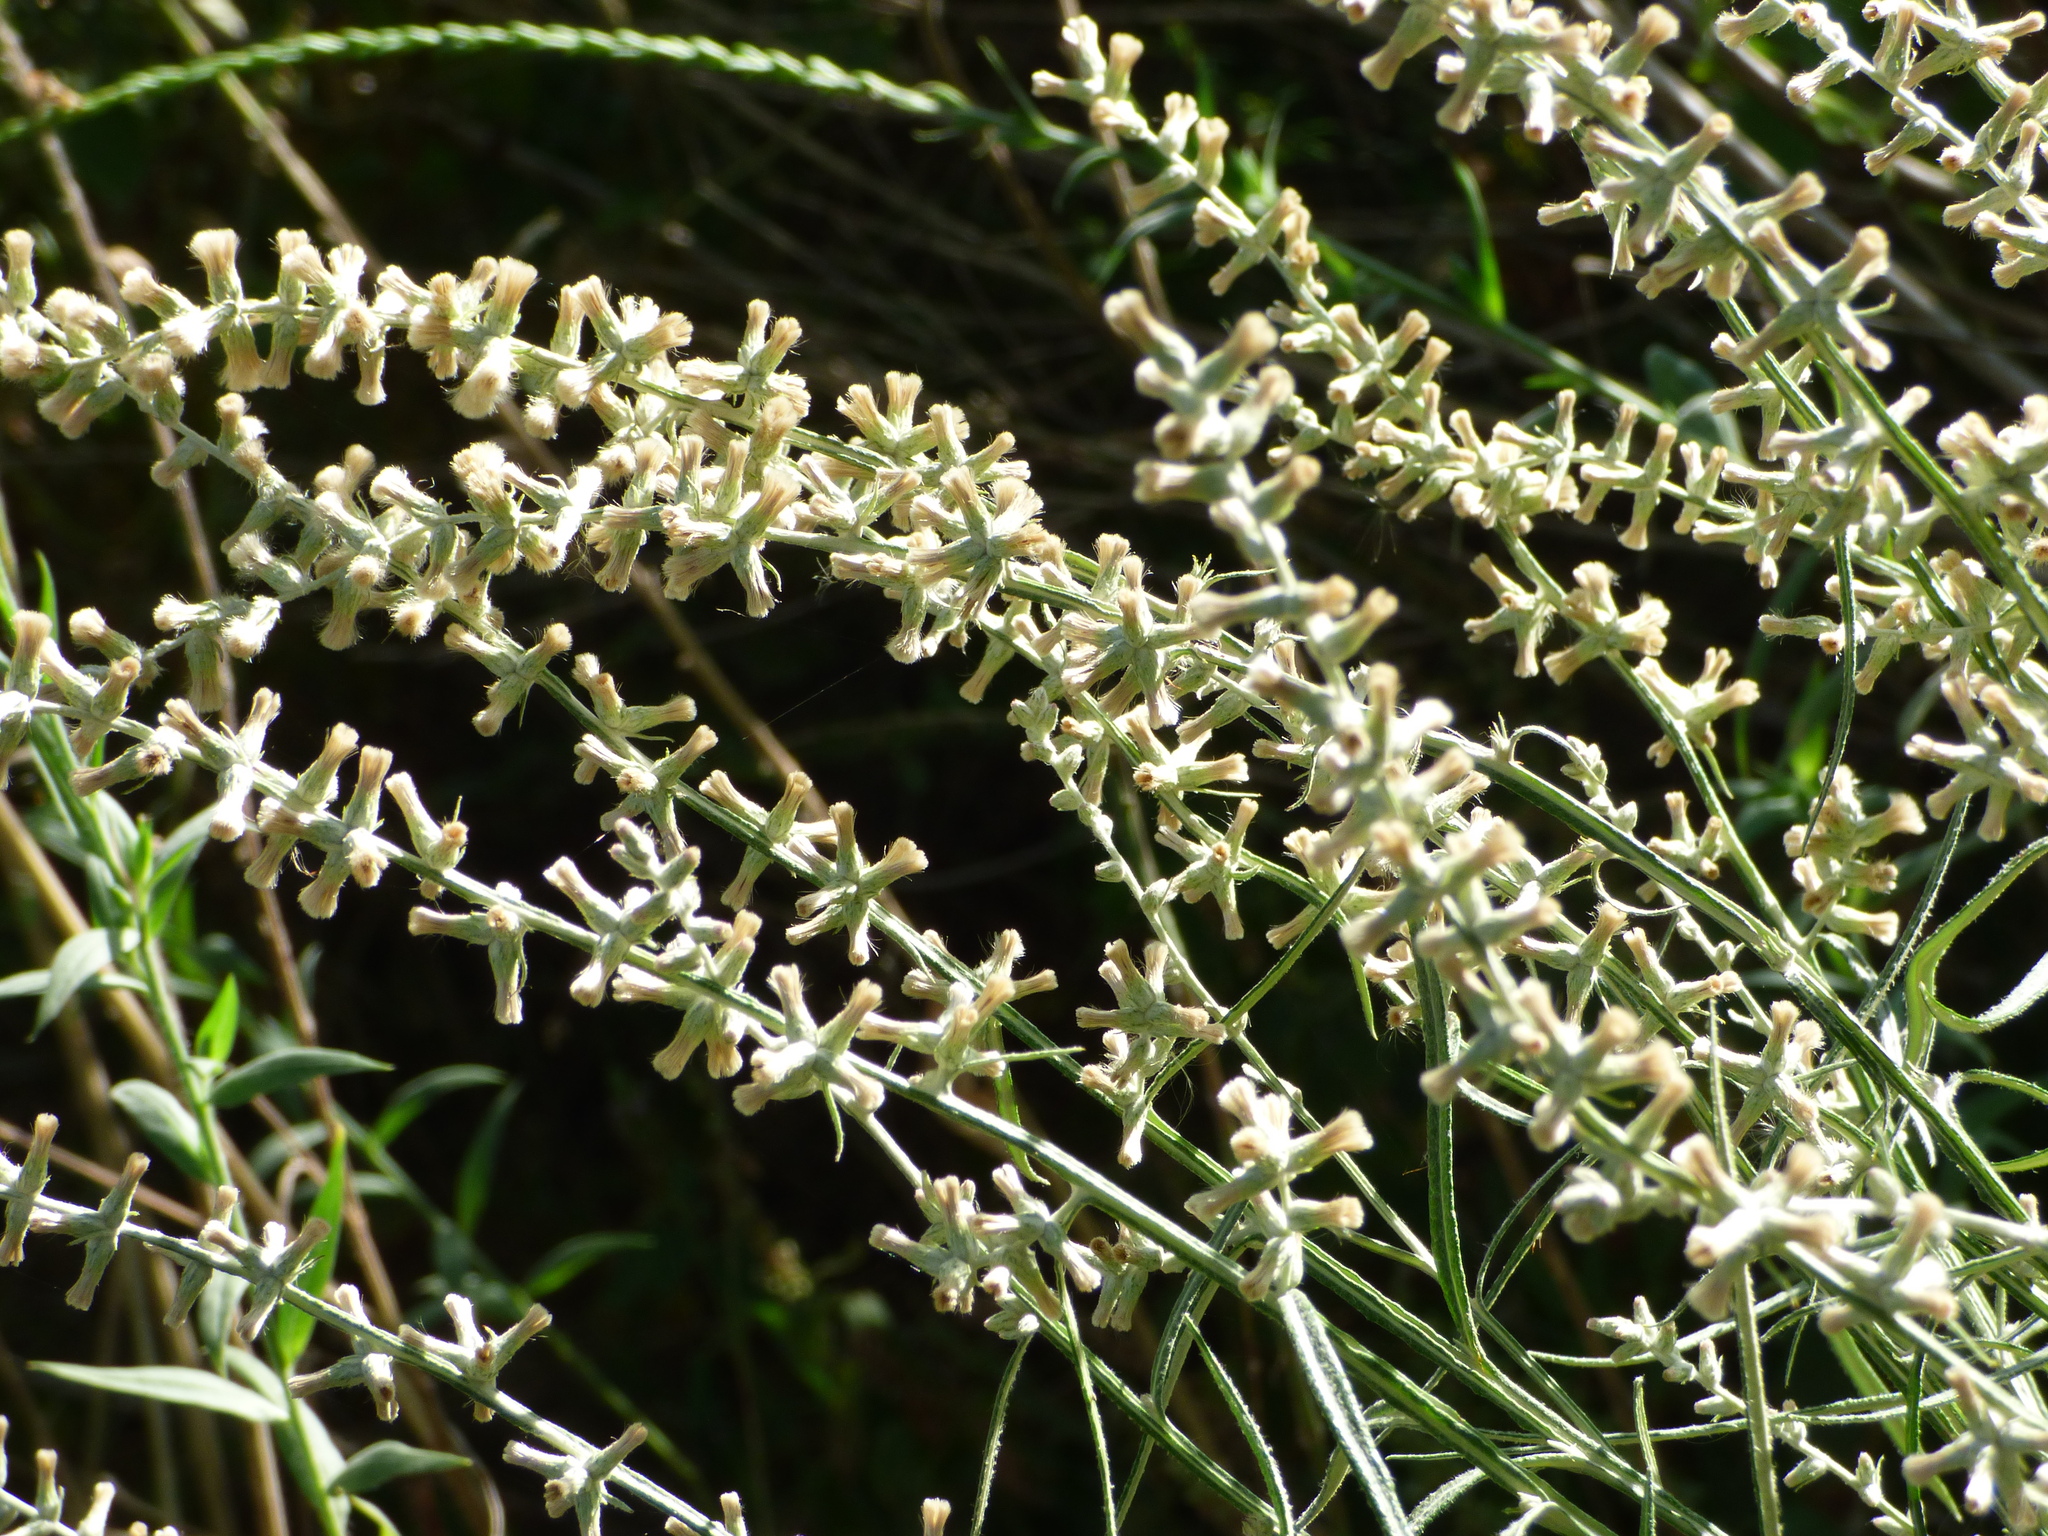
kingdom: Plantae
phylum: Tracheophyta
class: Magnoliopsida
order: Asterales
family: Asteraceae
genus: Pterocaulon
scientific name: Pterocaulon virgatum
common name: Wand blackroot
